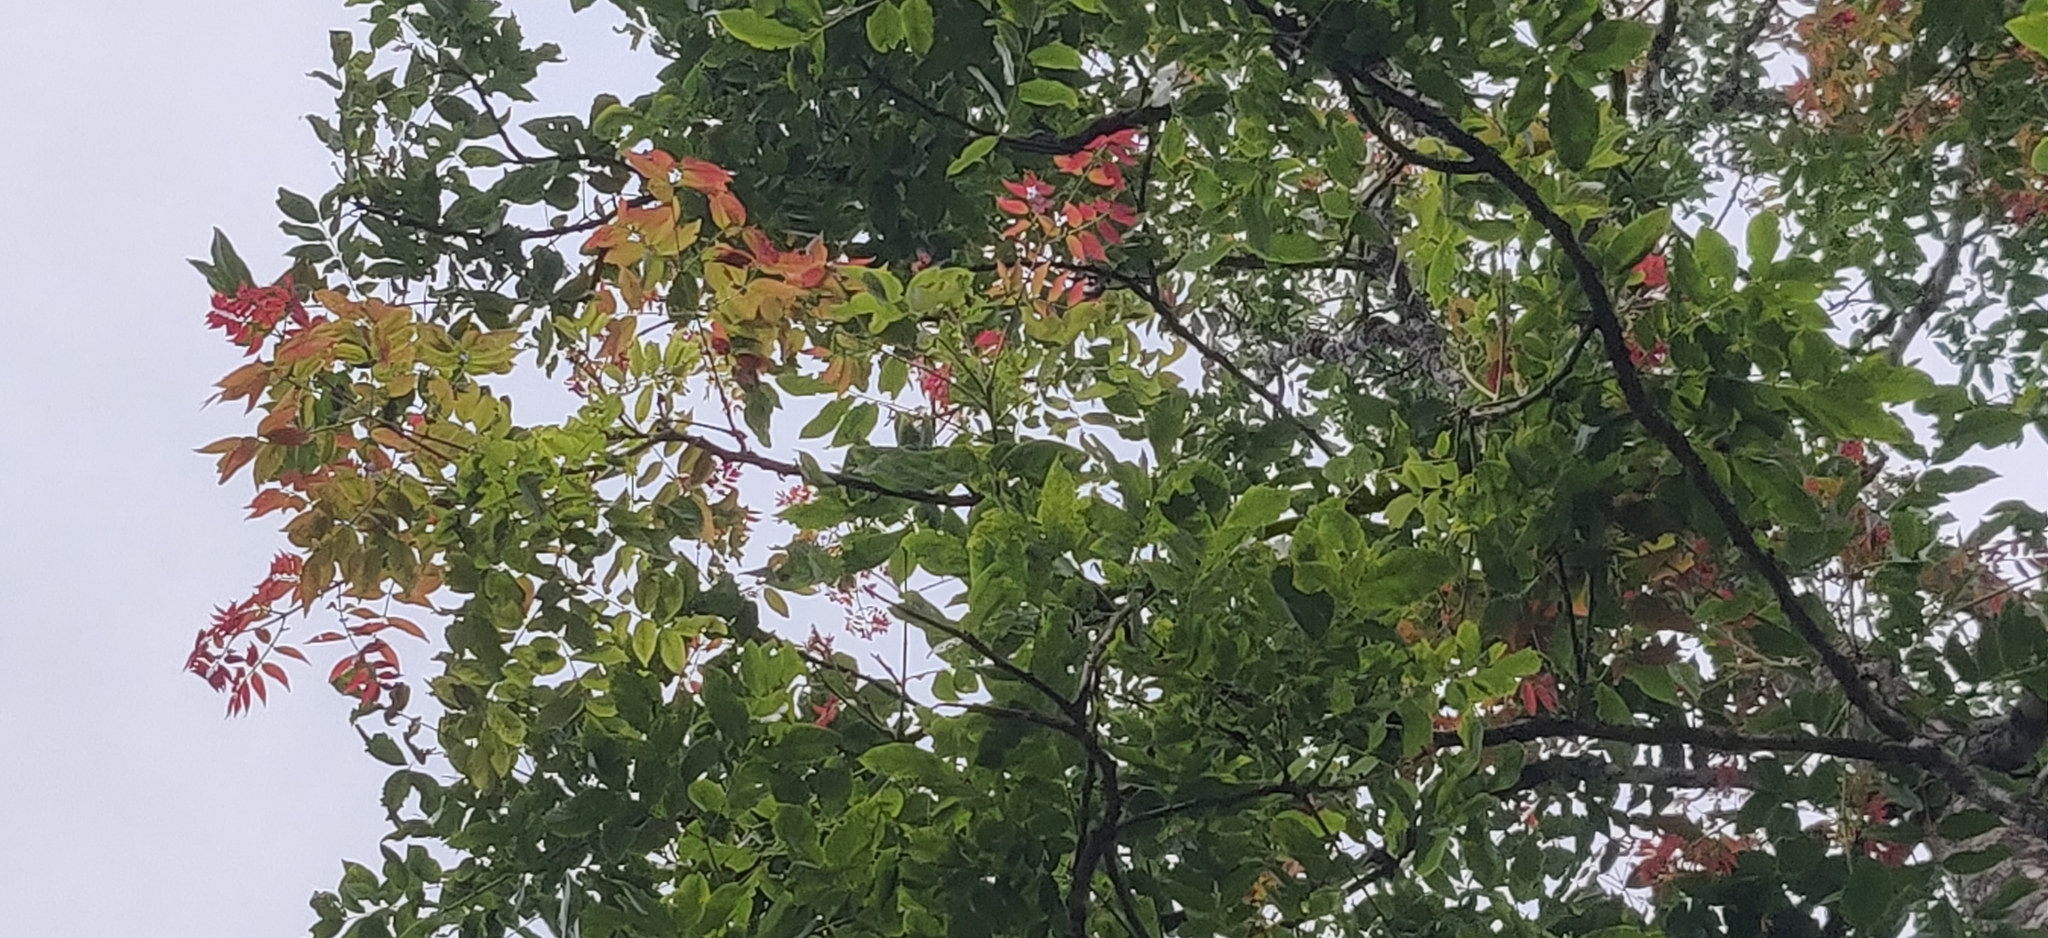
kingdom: Plantae
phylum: Tracheophyta
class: Magnoliopsida
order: Fabales
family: Fabaceae
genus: Acrocarpus
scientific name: Acrocarpus fraxinifolius
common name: Kenya coffeeshade
